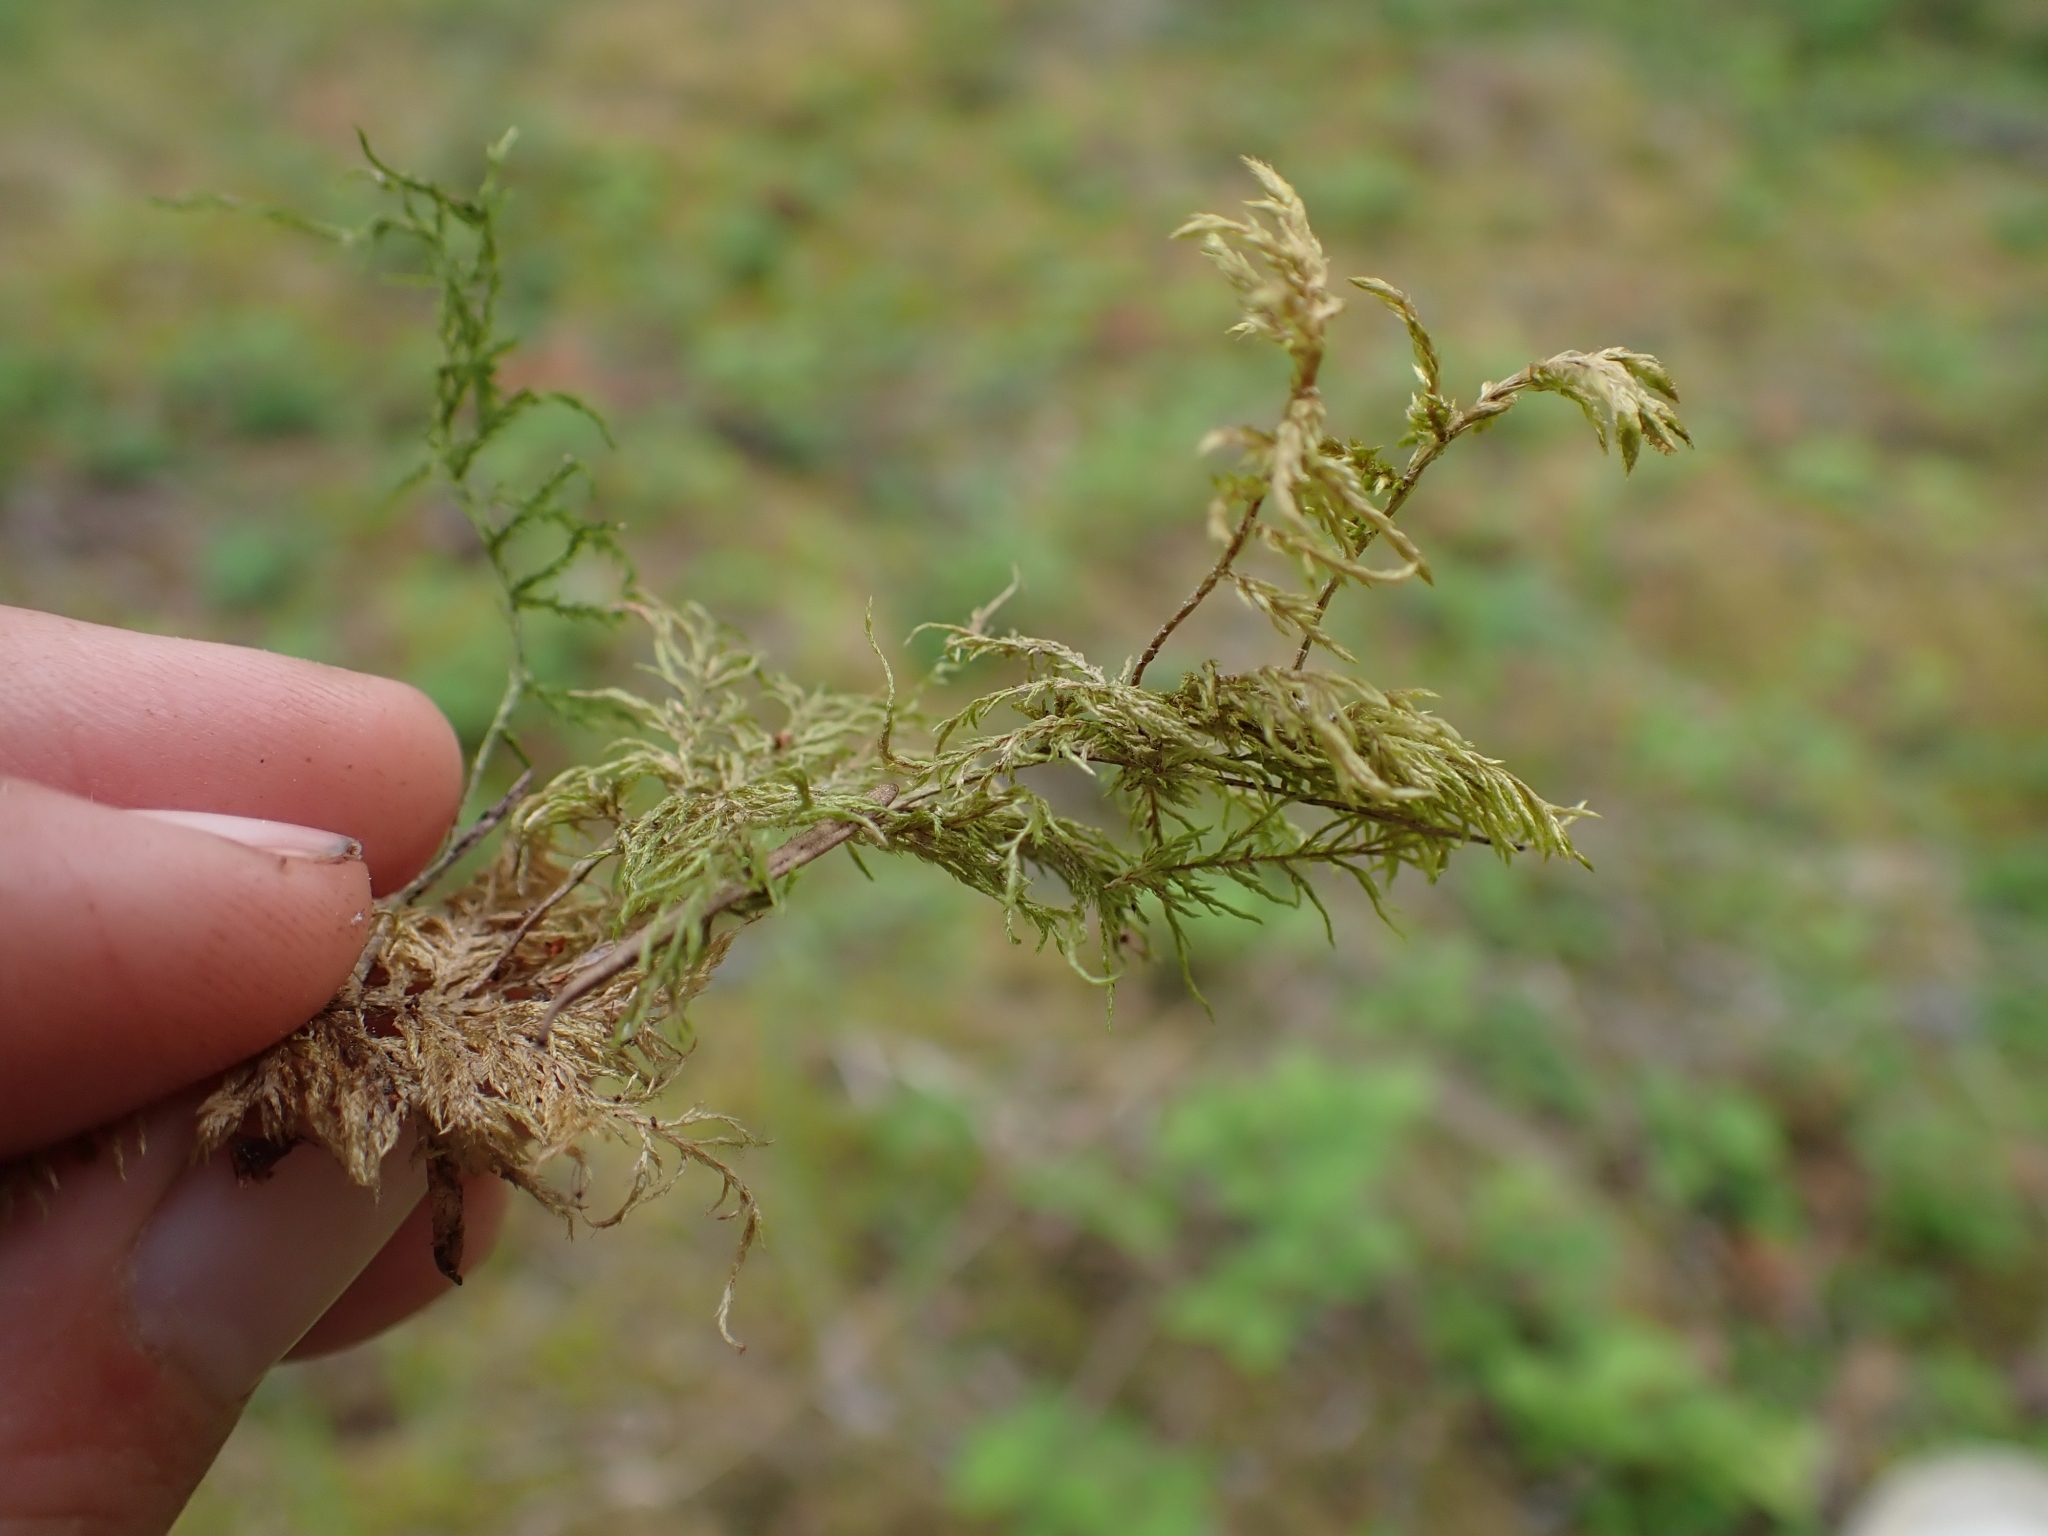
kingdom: Plantae
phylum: Bryophyta
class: Bryopsida
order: Hypnales
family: Hylocomiaceae
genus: Hylocomium
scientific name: Hylocomium splendens
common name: Stairstep moss
